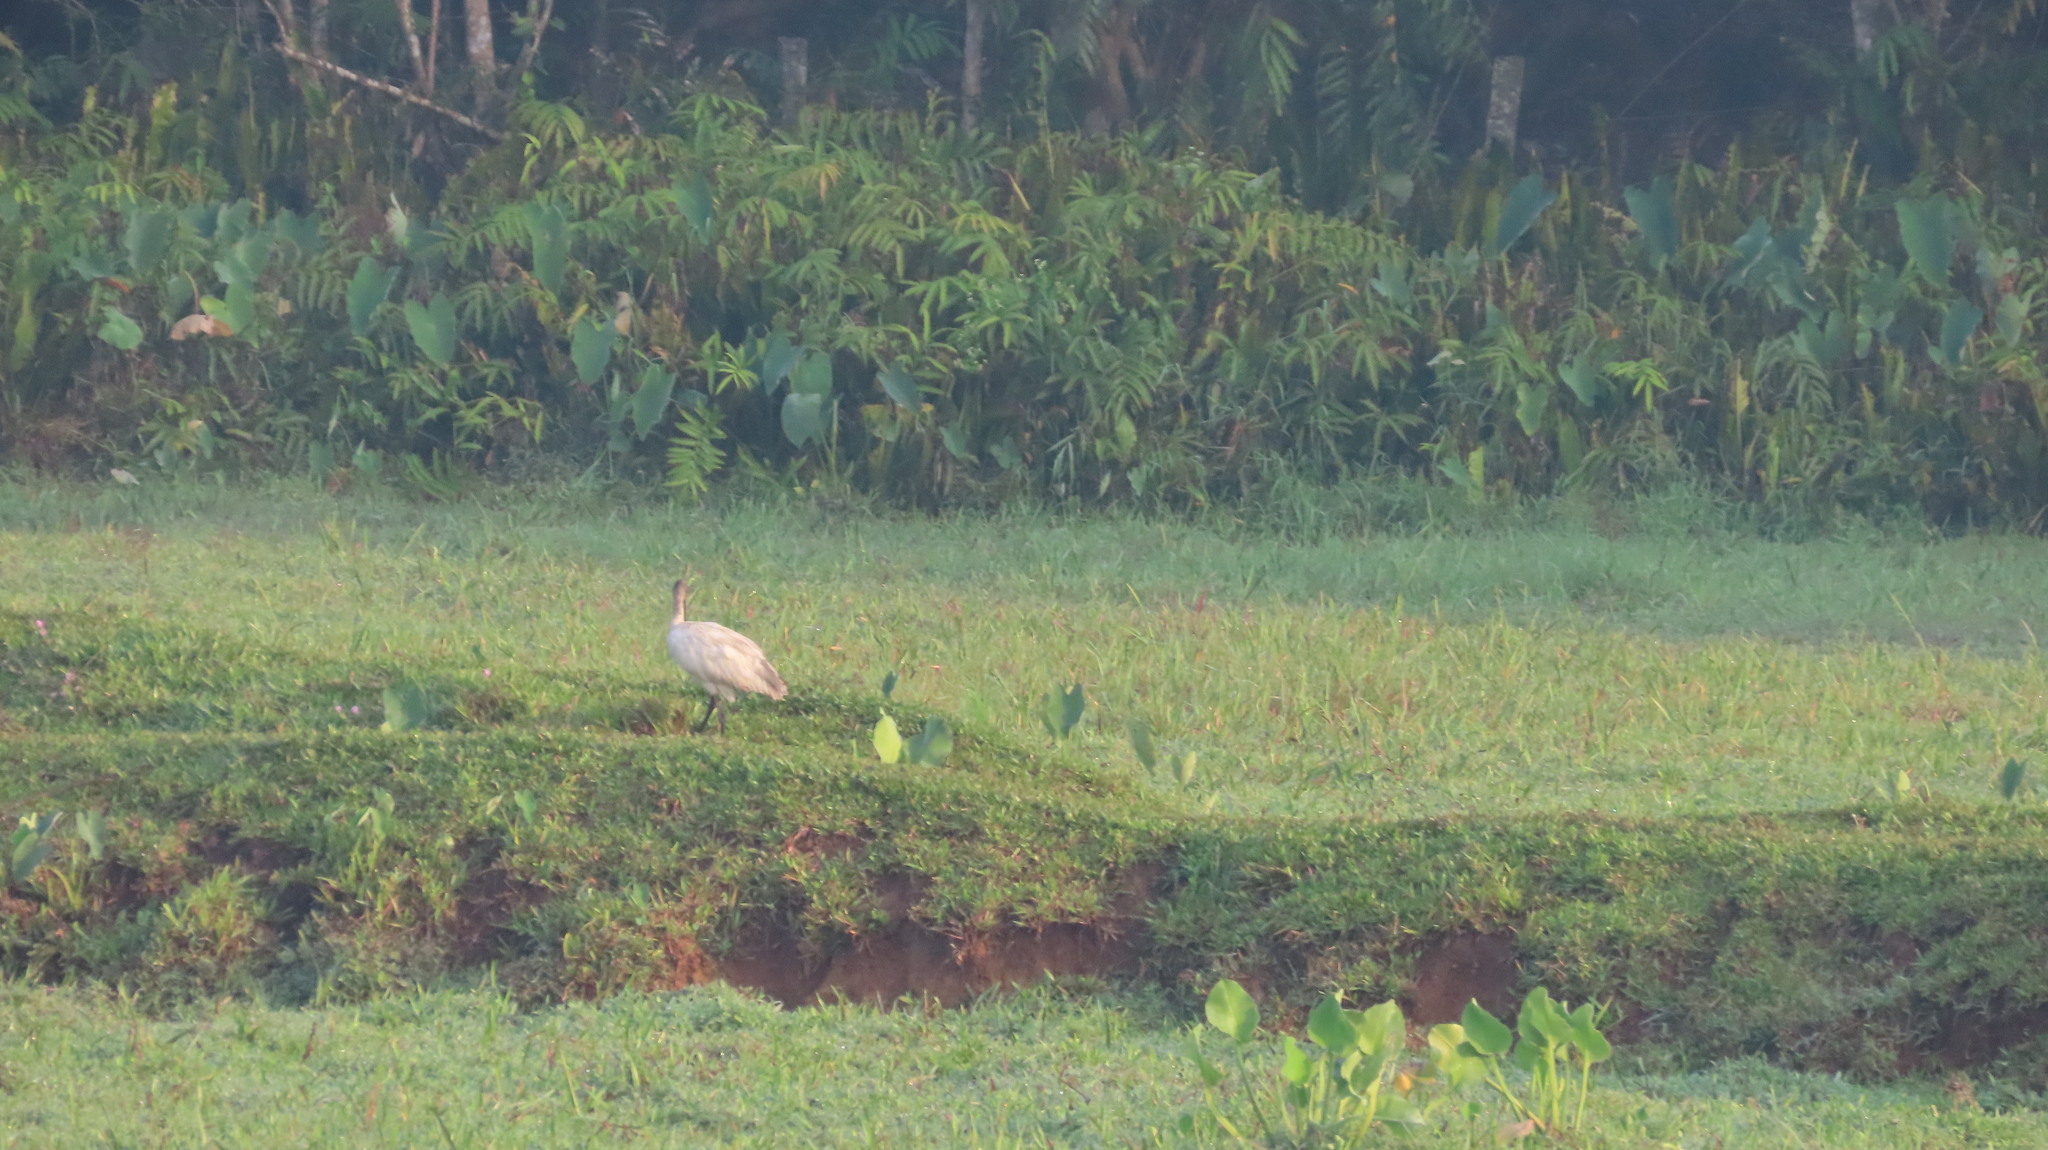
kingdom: Animalia
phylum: Chordata
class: Aves
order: Pelecaniformes
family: Threskiornithidae
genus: Threskiornis
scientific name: Threskiornis melanocephalus
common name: Black-headed ibis
